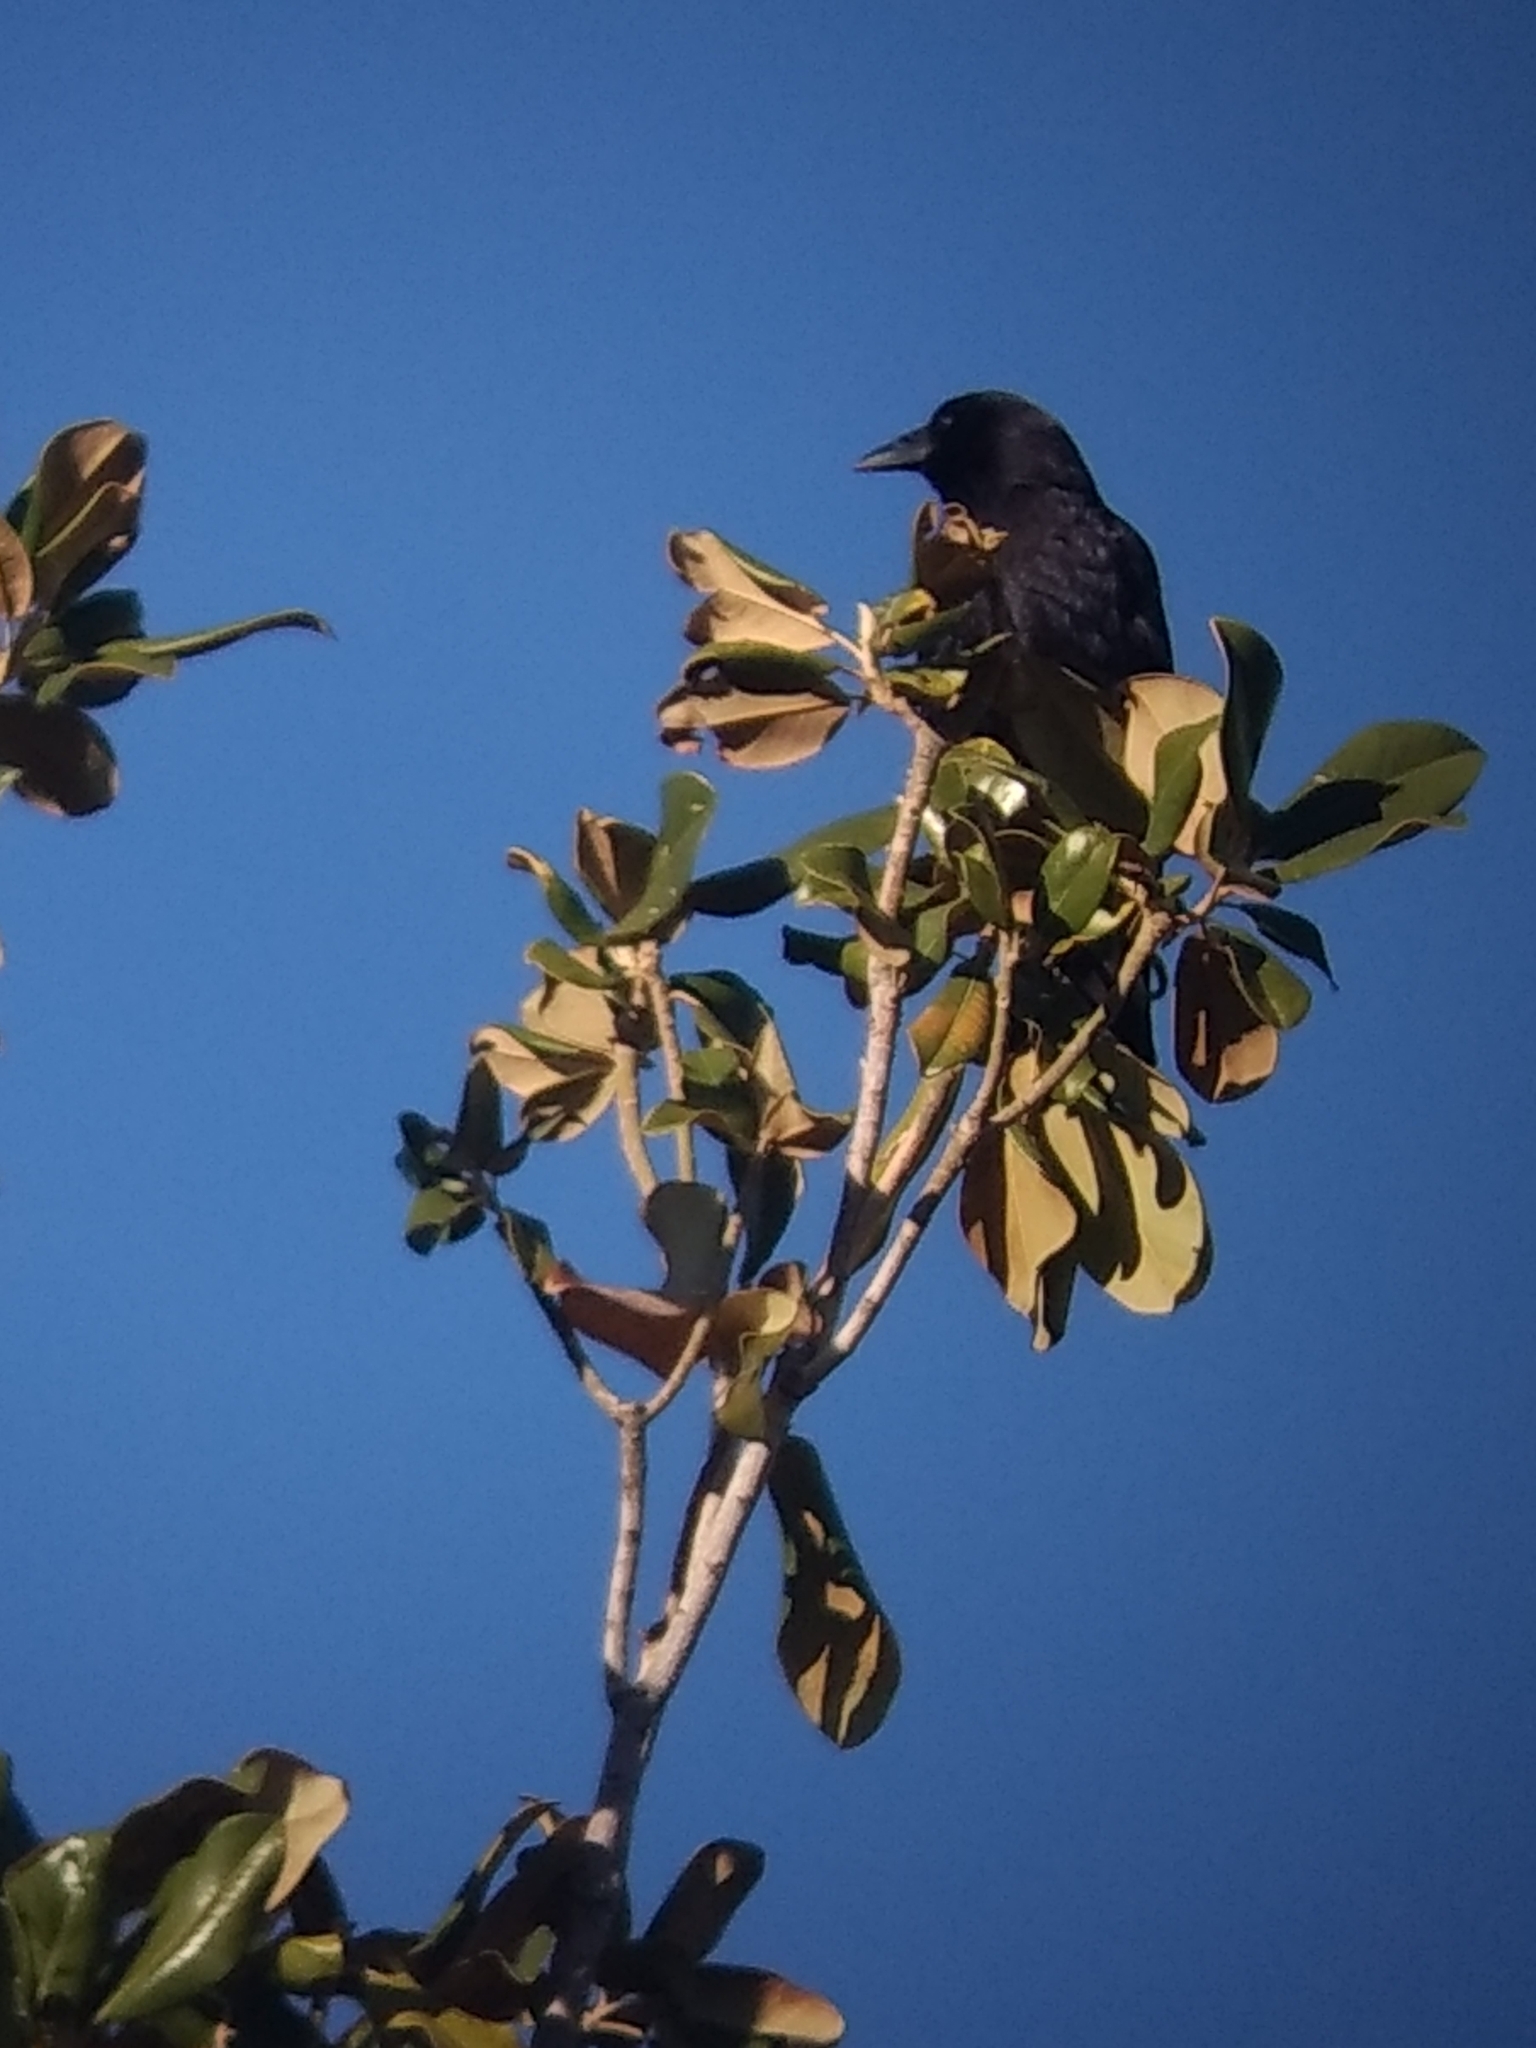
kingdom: Animalia
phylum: Chordata
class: Aves
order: Passeriformes
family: Corvidae
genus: Corvus
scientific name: Corvus brachyrhynchos
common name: American crow
